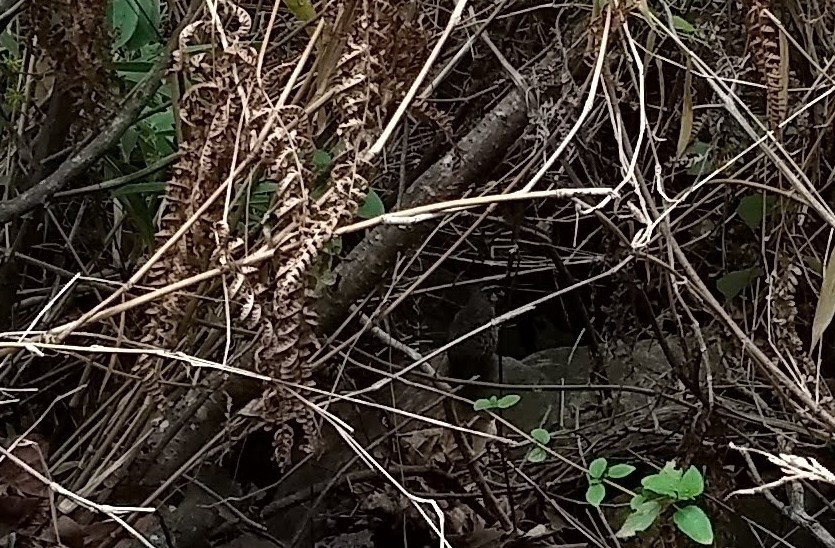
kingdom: Animalia
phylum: Chordata
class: Aves
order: Galliformes
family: Phasianidae
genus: Perdicula
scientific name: Perdicula erythrorhyncha
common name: Painted bush-quail
